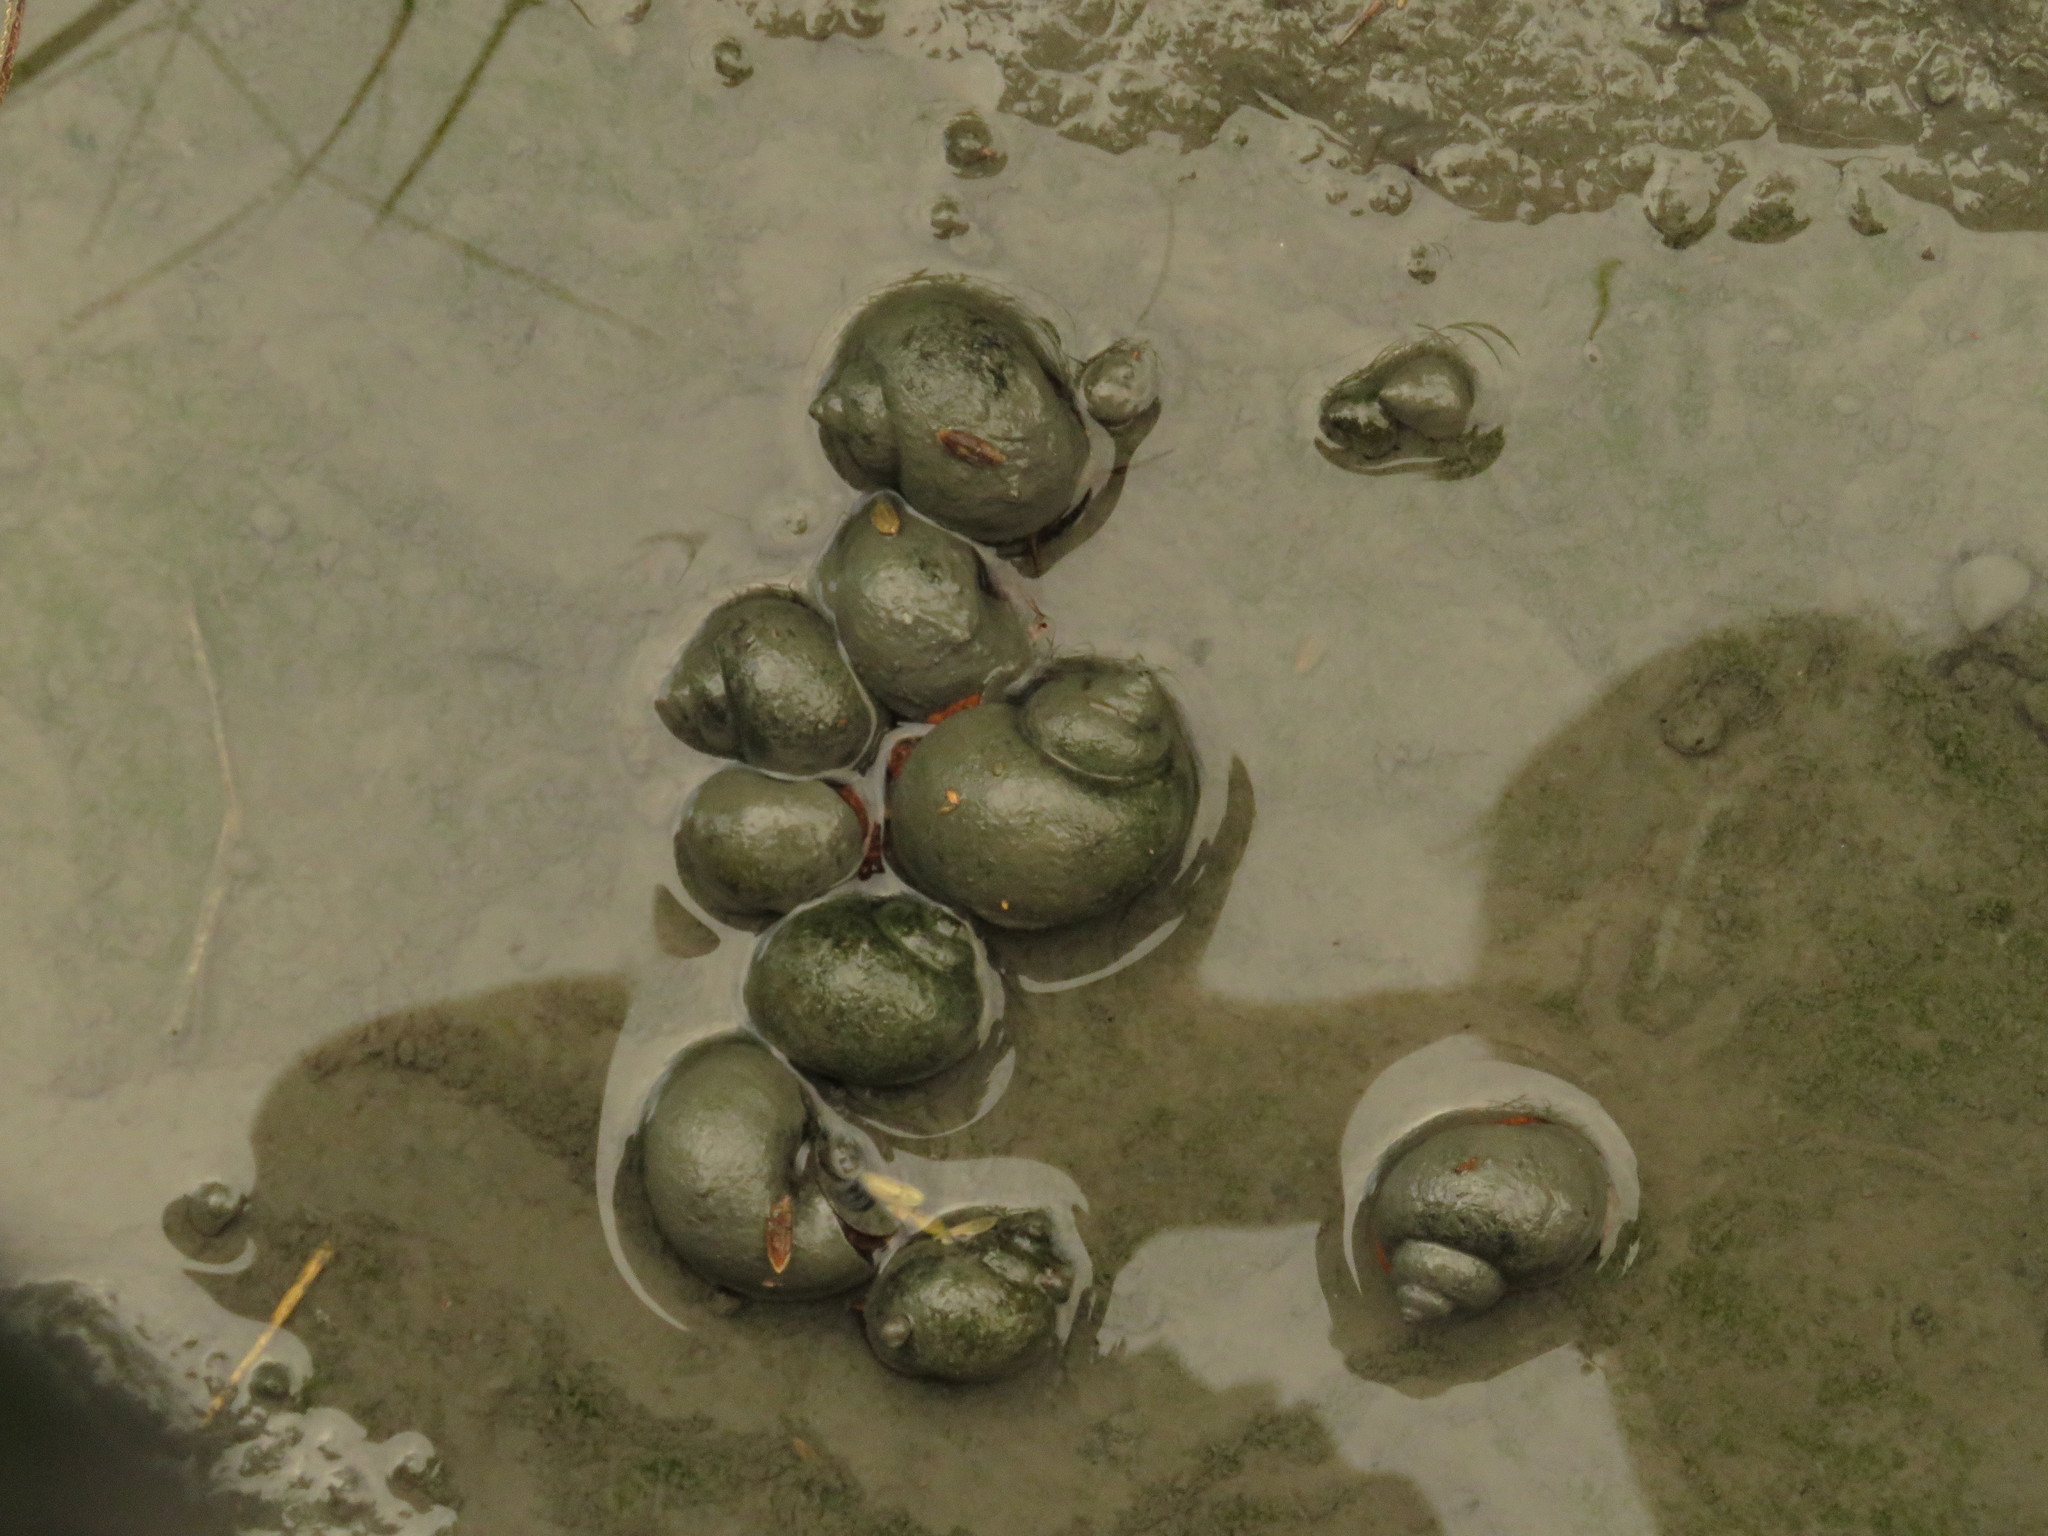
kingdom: Animalia
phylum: Mollusca
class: Gastropoda
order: Architaenioglossa
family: Ampullariidae
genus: Pomacea
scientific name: Pomacea canaliculata
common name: Channeled applesnail
